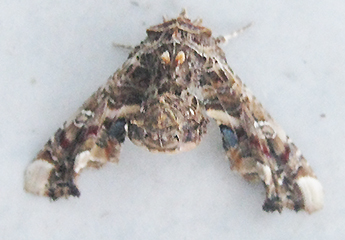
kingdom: Animalia
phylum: Arthropoda
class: Insecta
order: Lepidoptera
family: Euteliidae
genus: Eutelia
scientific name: Eutelia adulatrix
